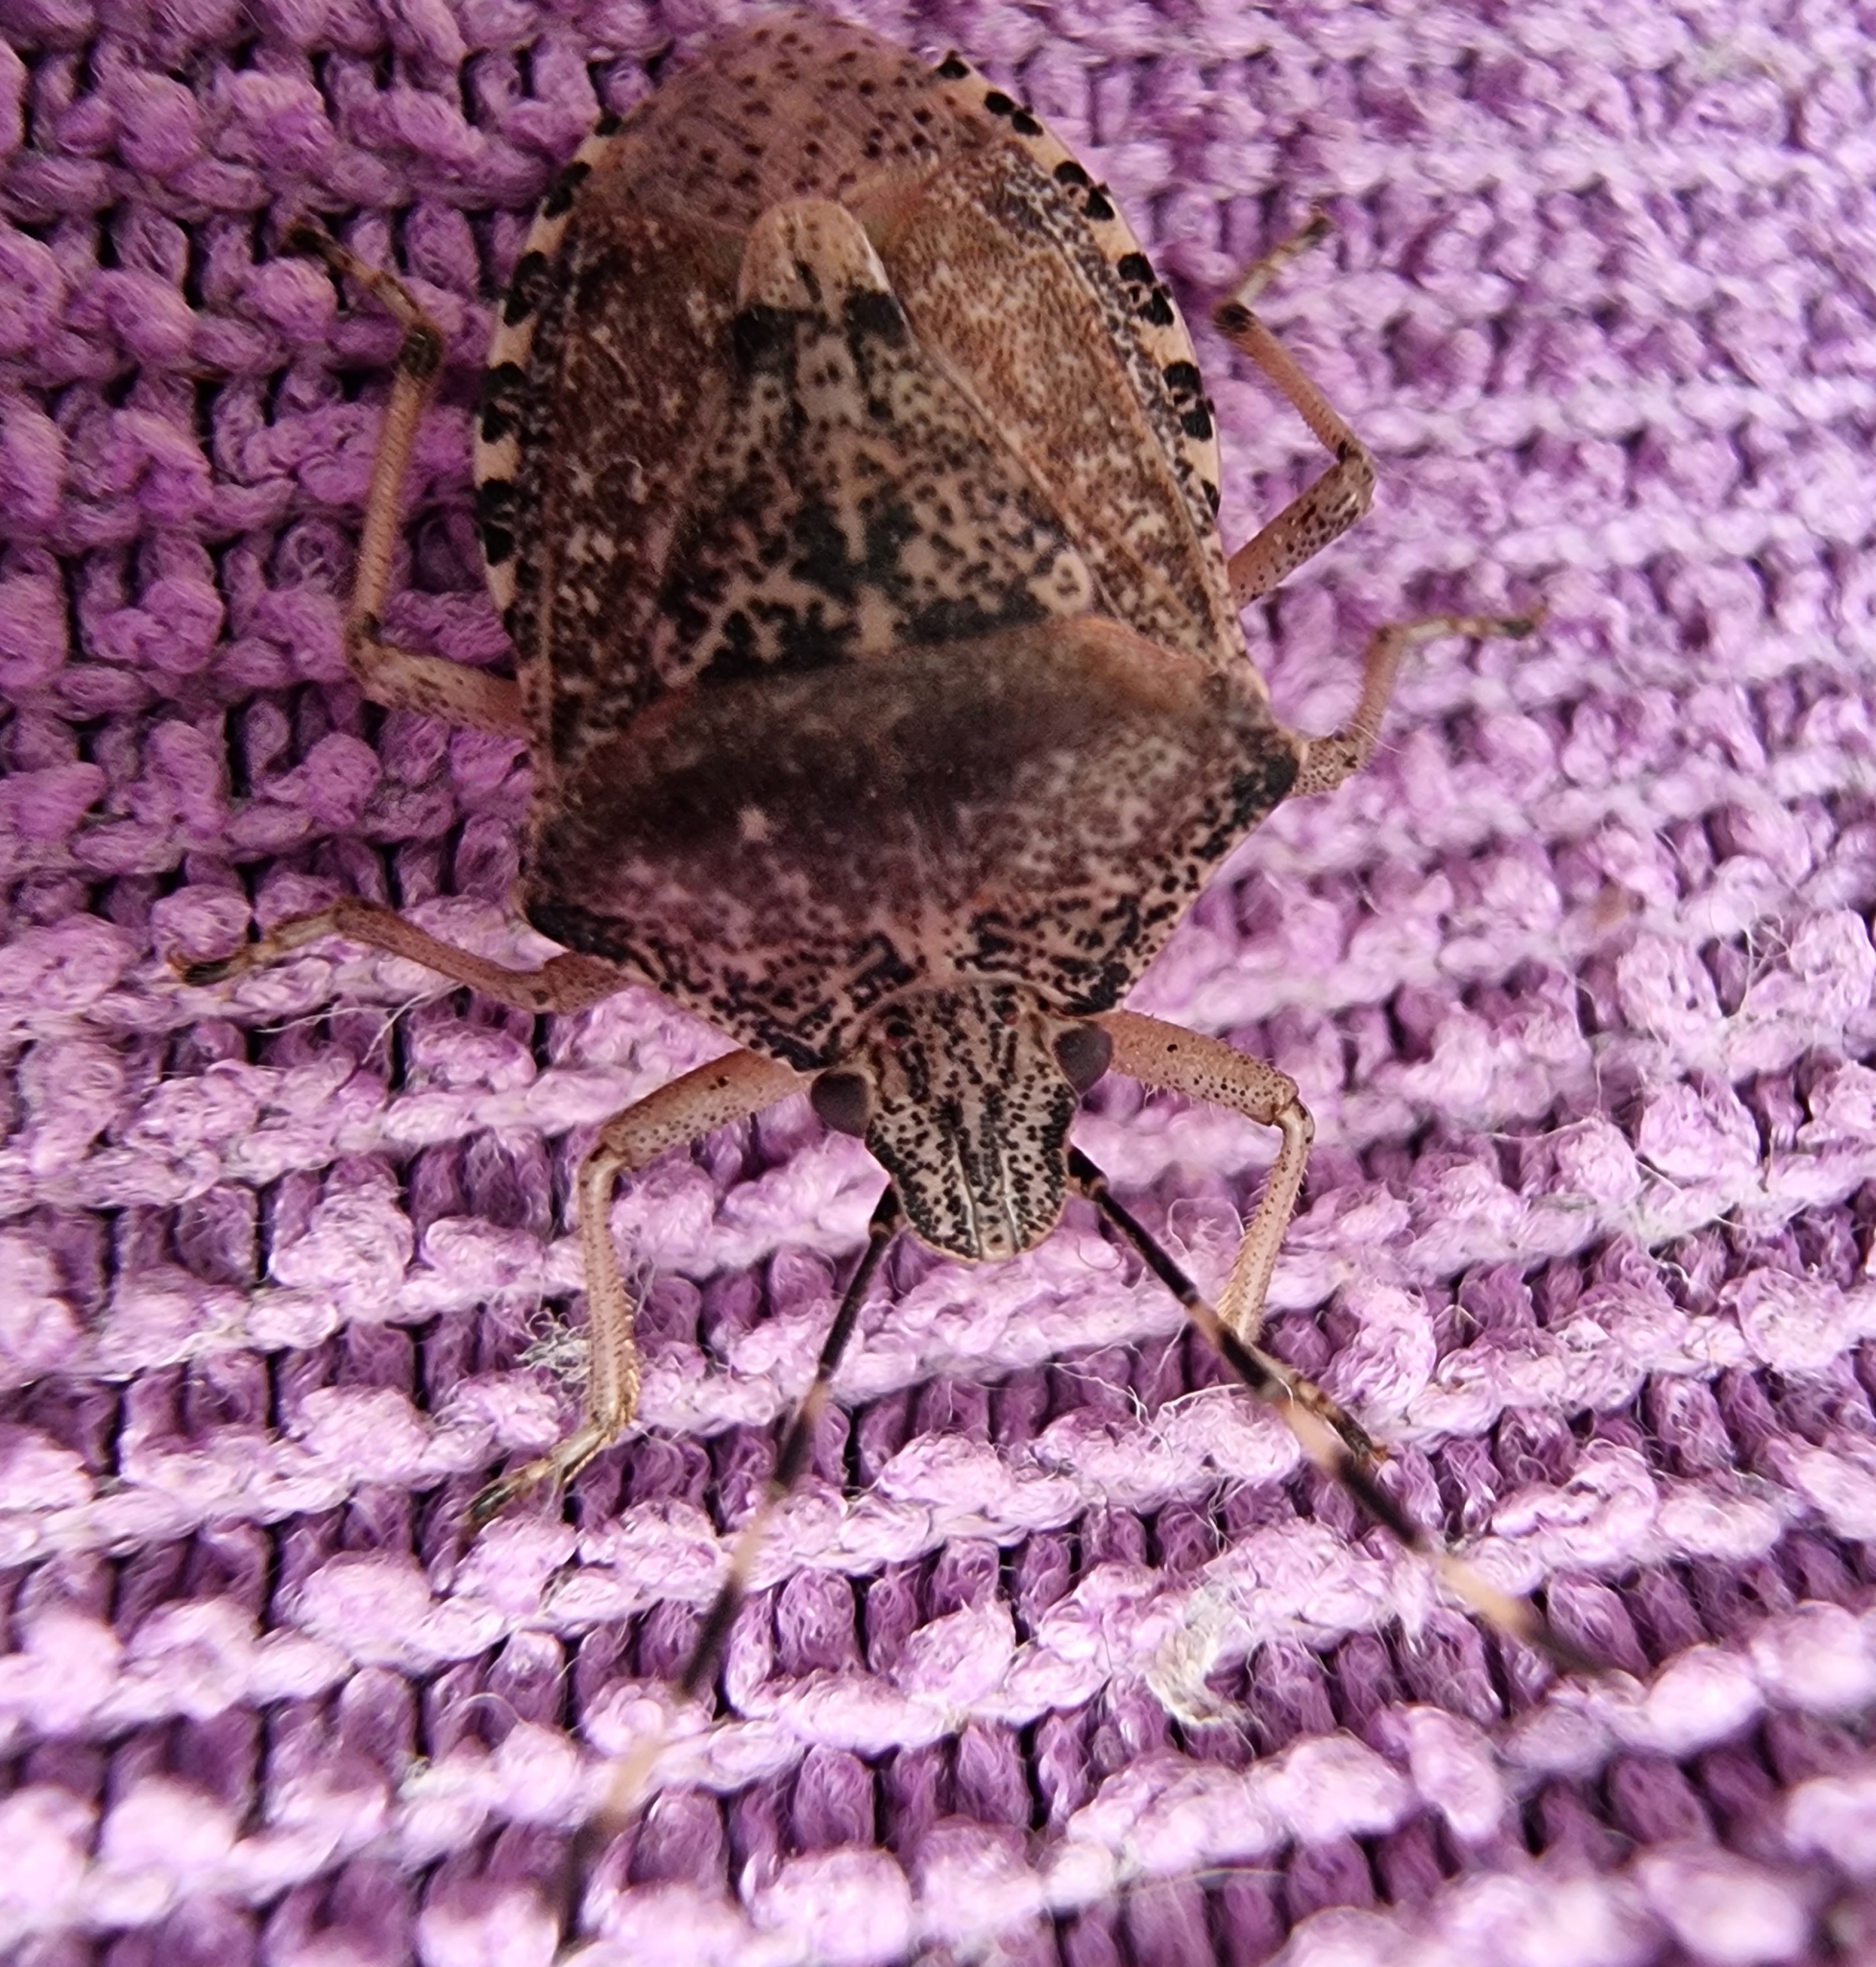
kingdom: Animalia
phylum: Arthropoda
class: Insecta
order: Hemiptera
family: Pentatomidae
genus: Rhaphigaster
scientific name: Rhaphigaster nebulosa
